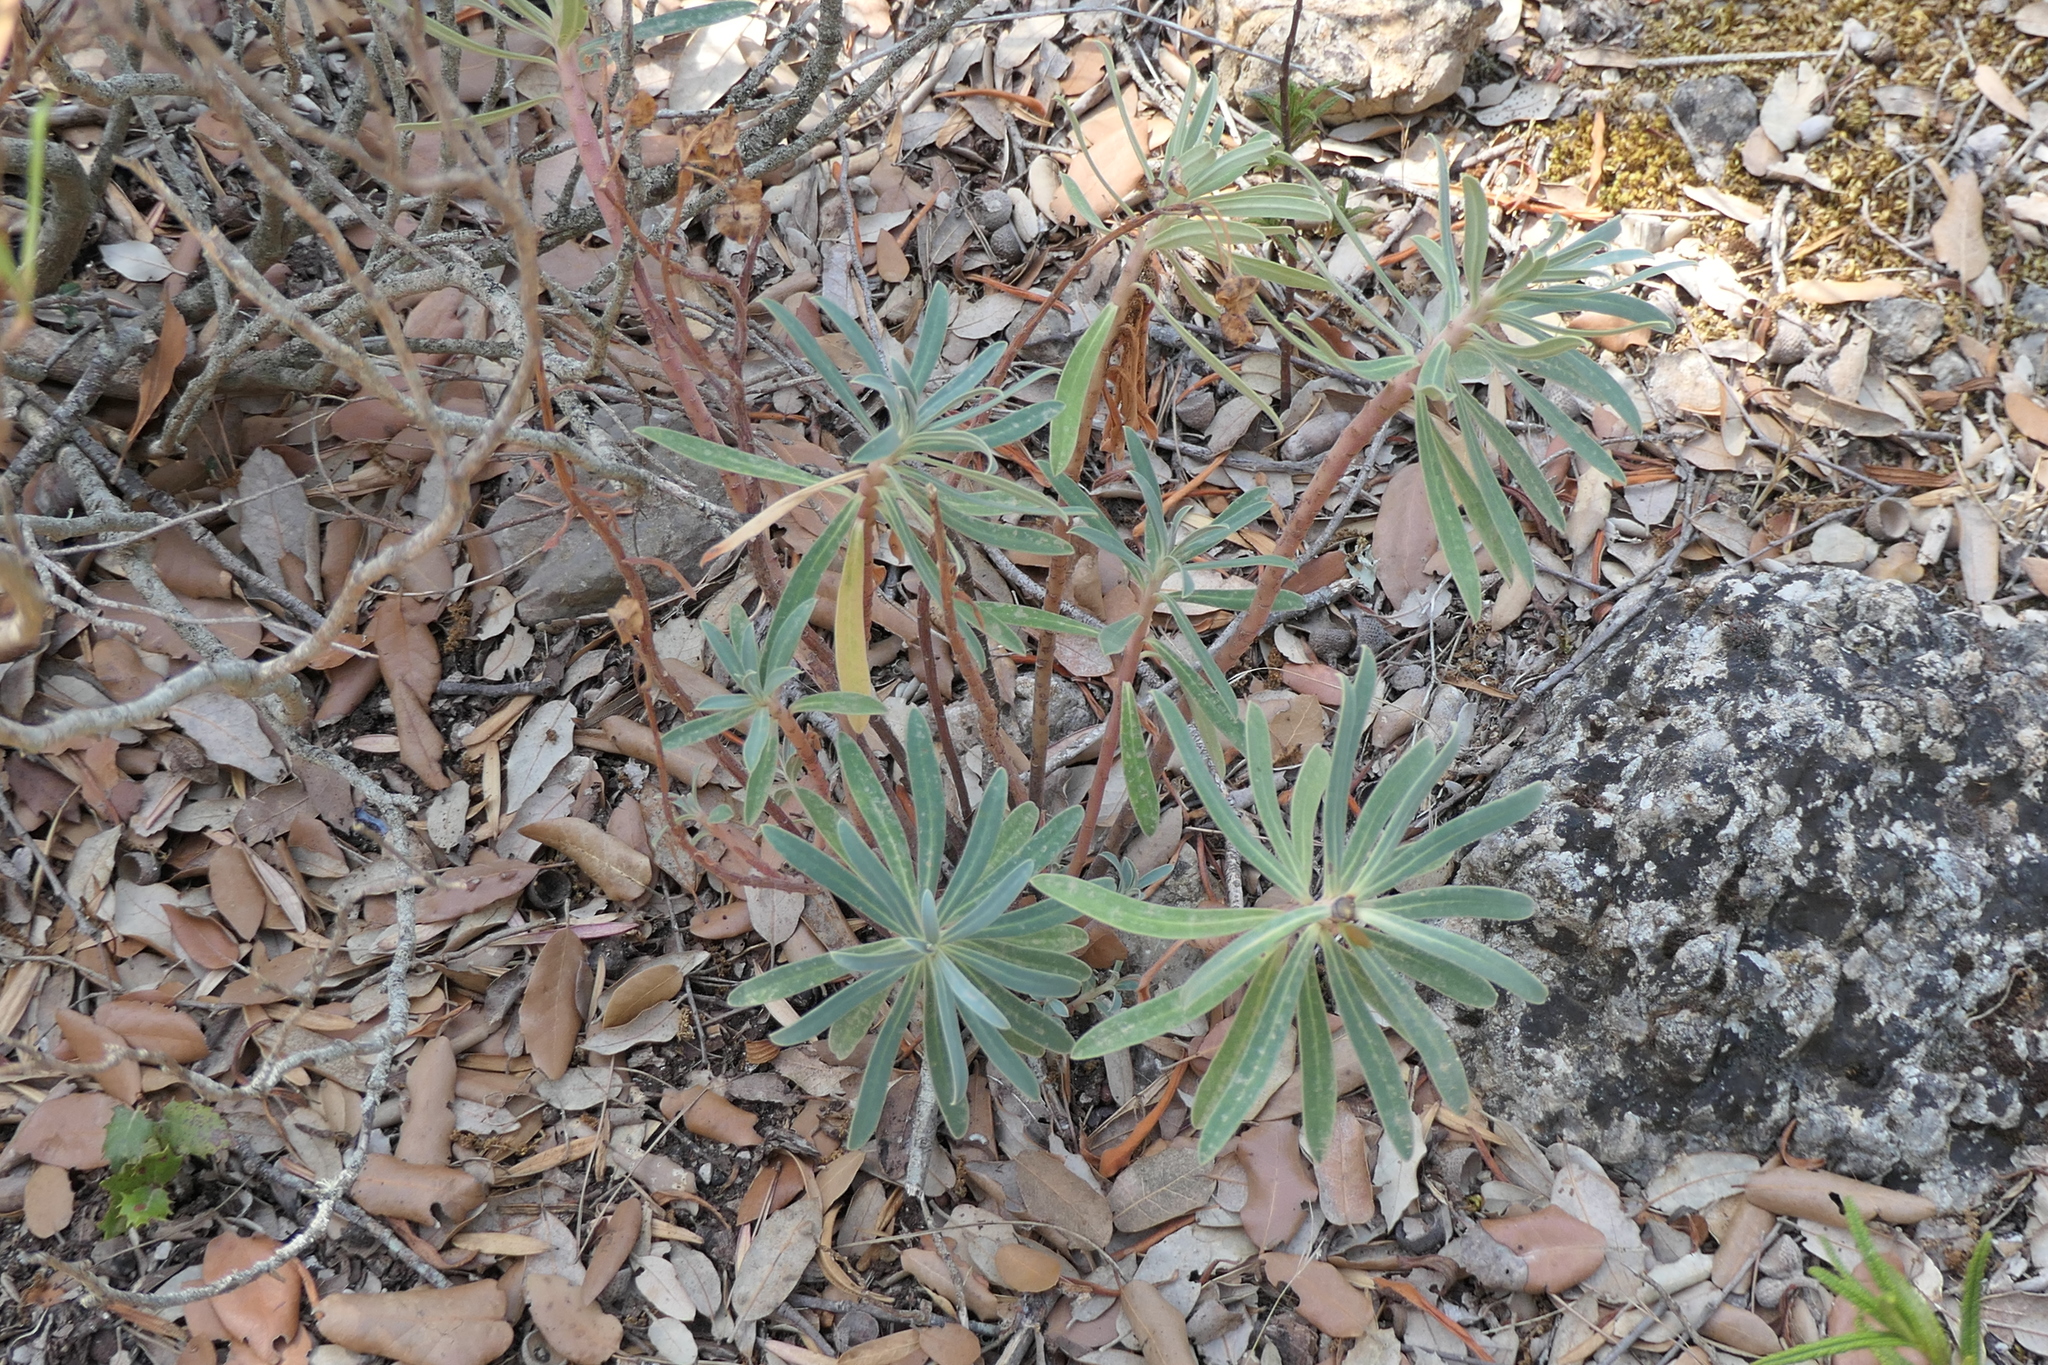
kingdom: Plantae
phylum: Tracheophyta
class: Magnoliopsida
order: Malpighiales
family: Euphorbiaceae
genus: Euphorbia
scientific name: Euphorbia characias
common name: Mediterranean spurge
